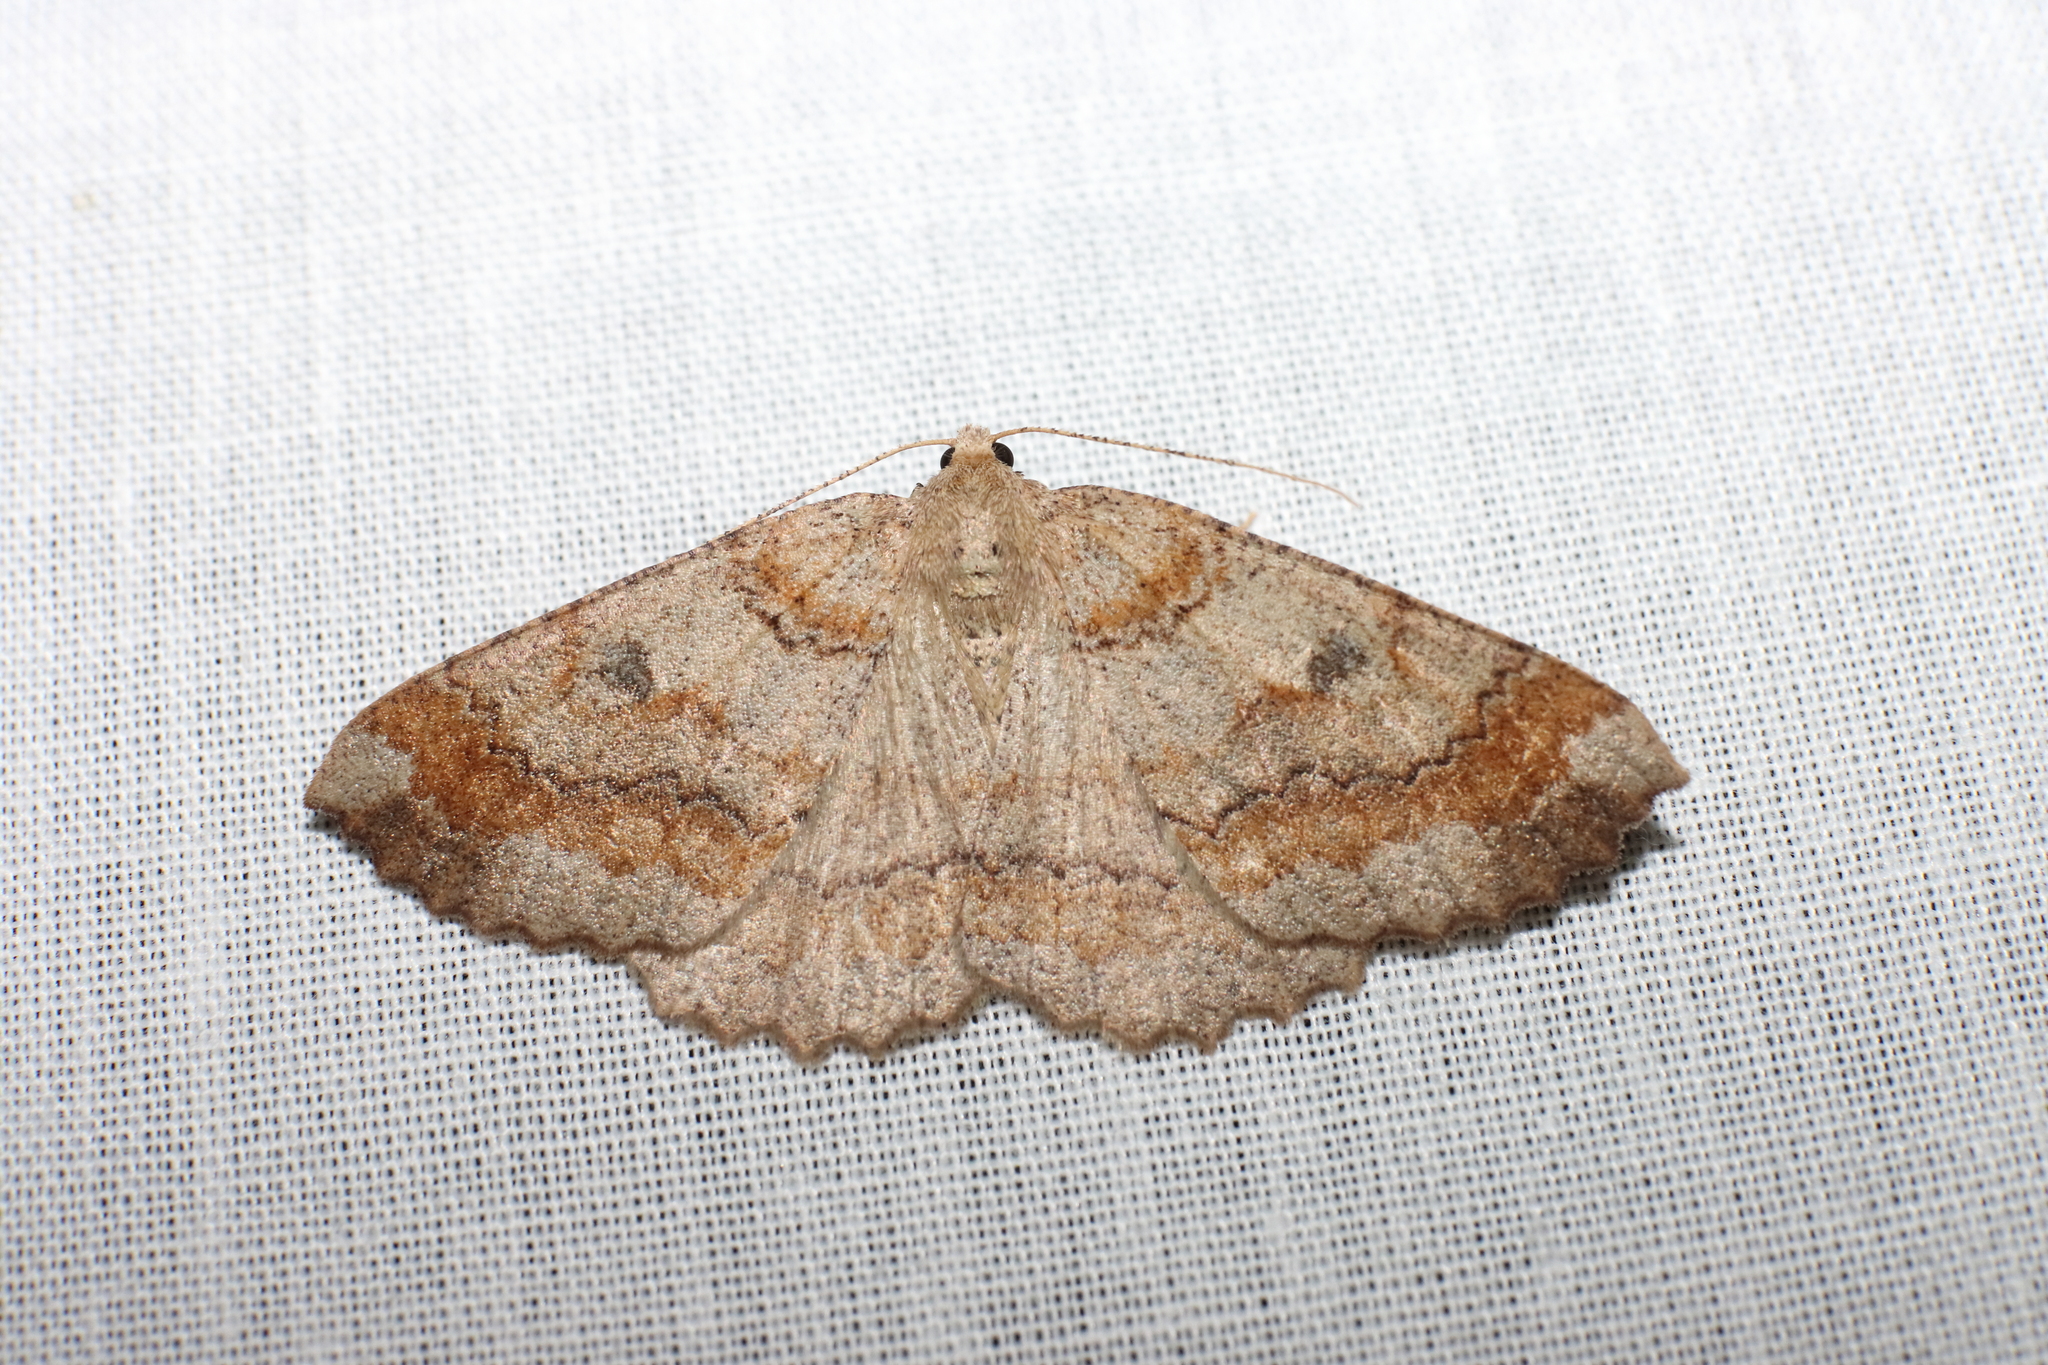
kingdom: Animalia
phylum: Arthropoda
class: Insecta
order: Lepidoptera
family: Geometridae
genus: Cleora
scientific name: Cleora scriptaria
